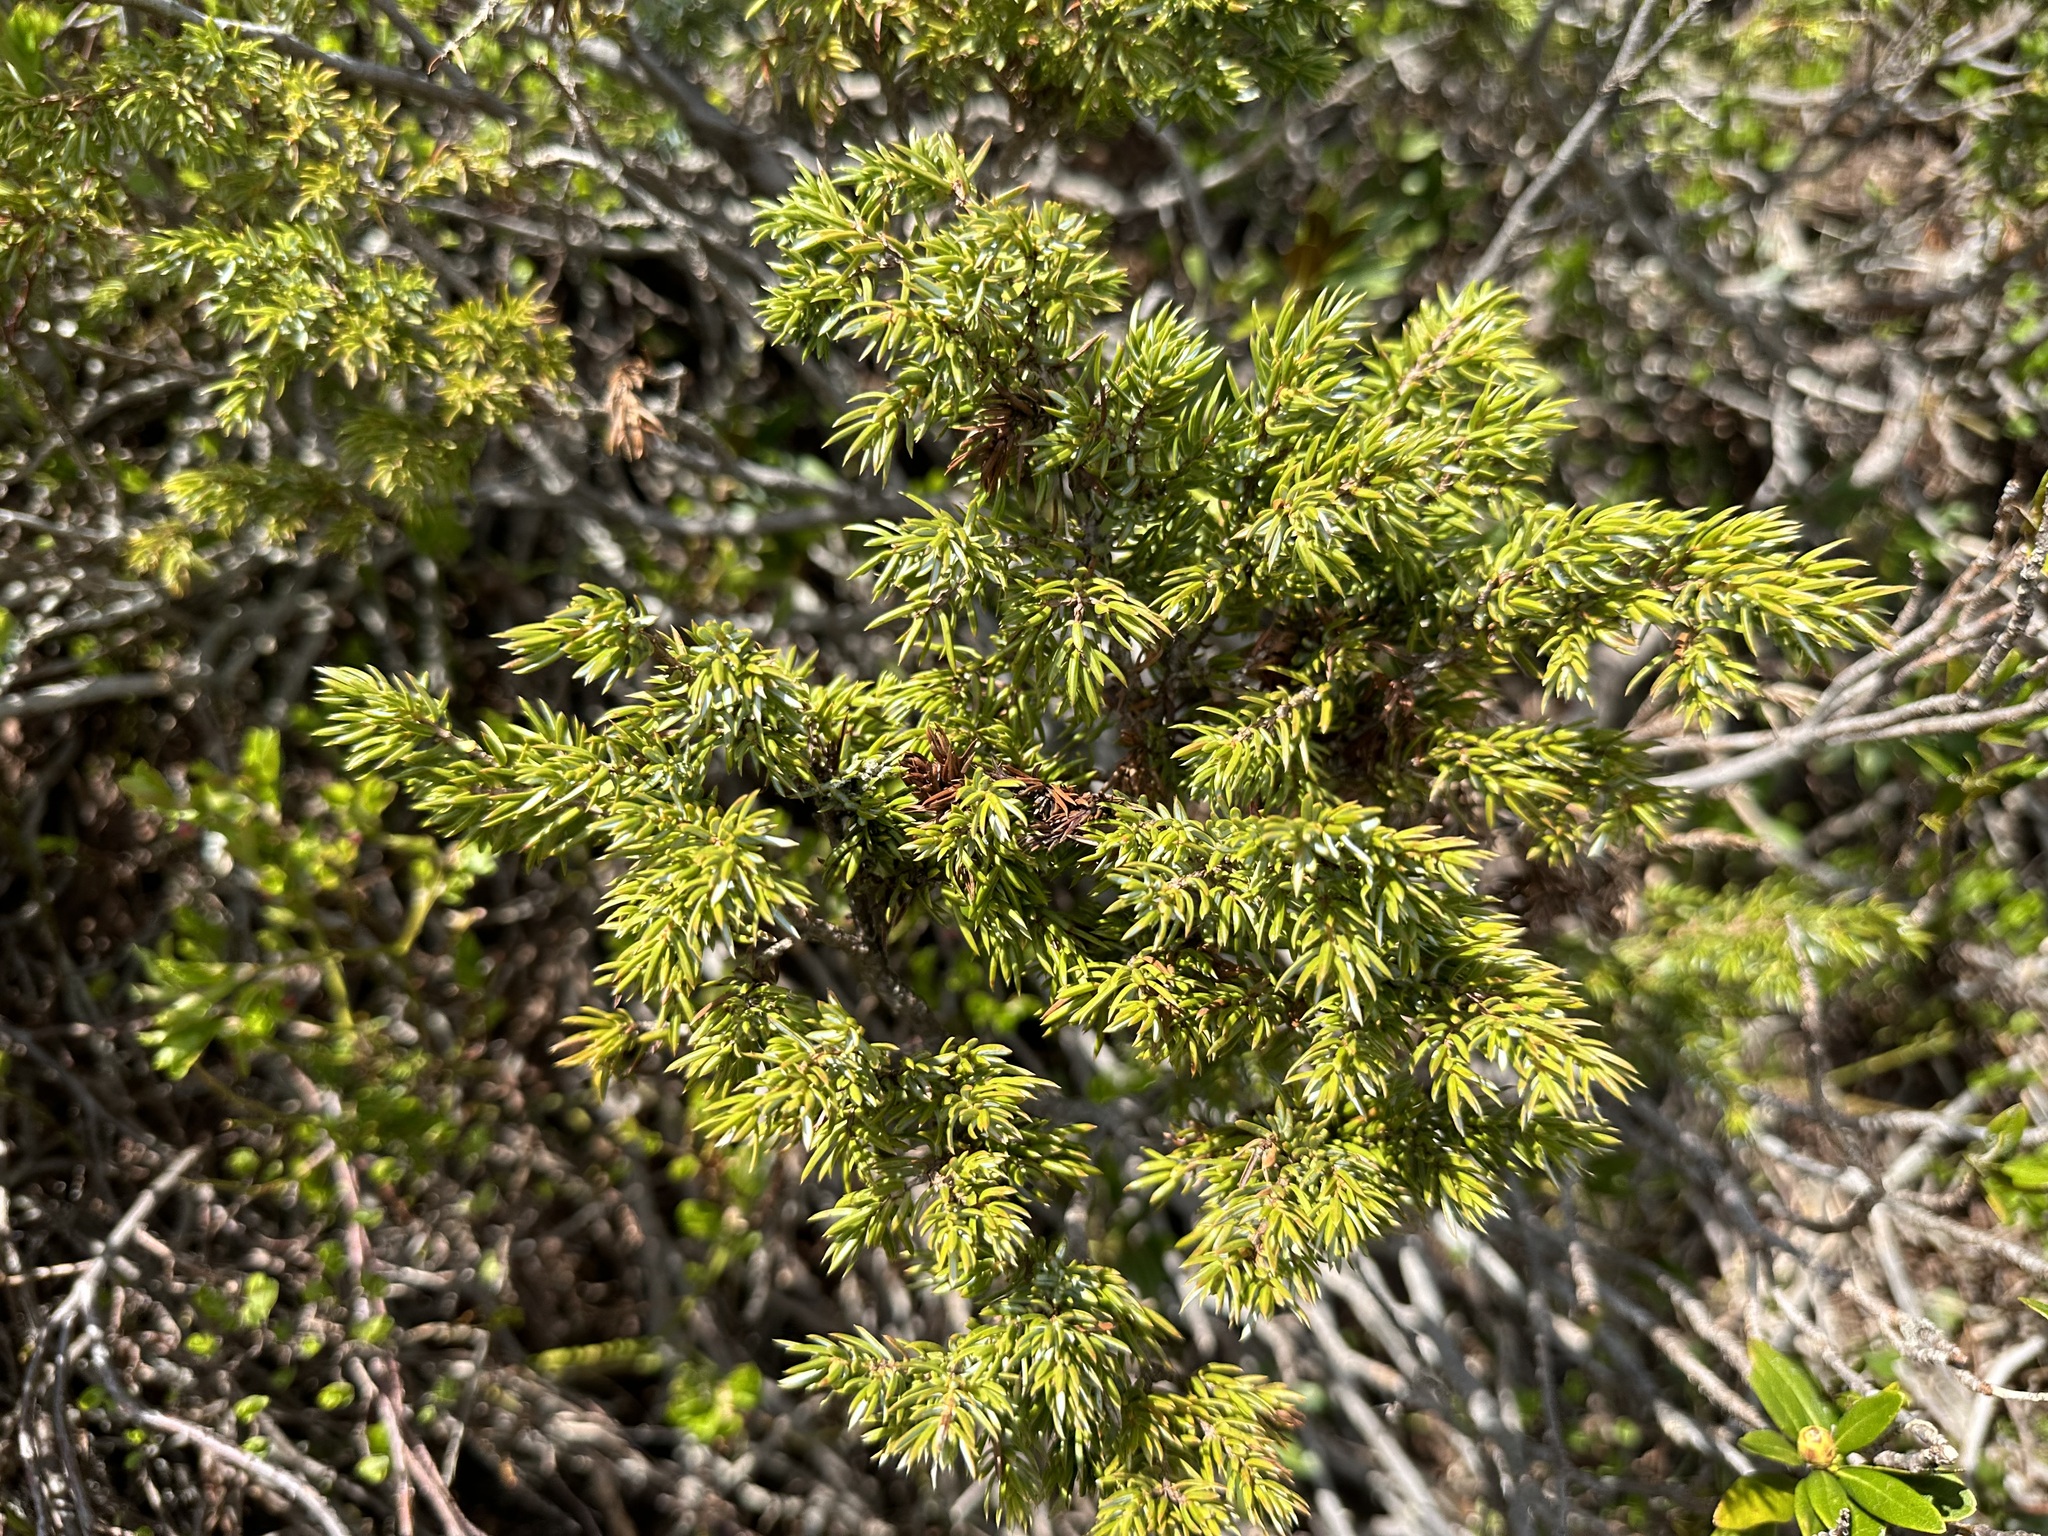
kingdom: Plantae
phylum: Tracheophyta
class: Pinopsida
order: Pinales
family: Cupressaceae
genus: Juniperus
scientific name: Juniperus communis
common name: Common juniper
